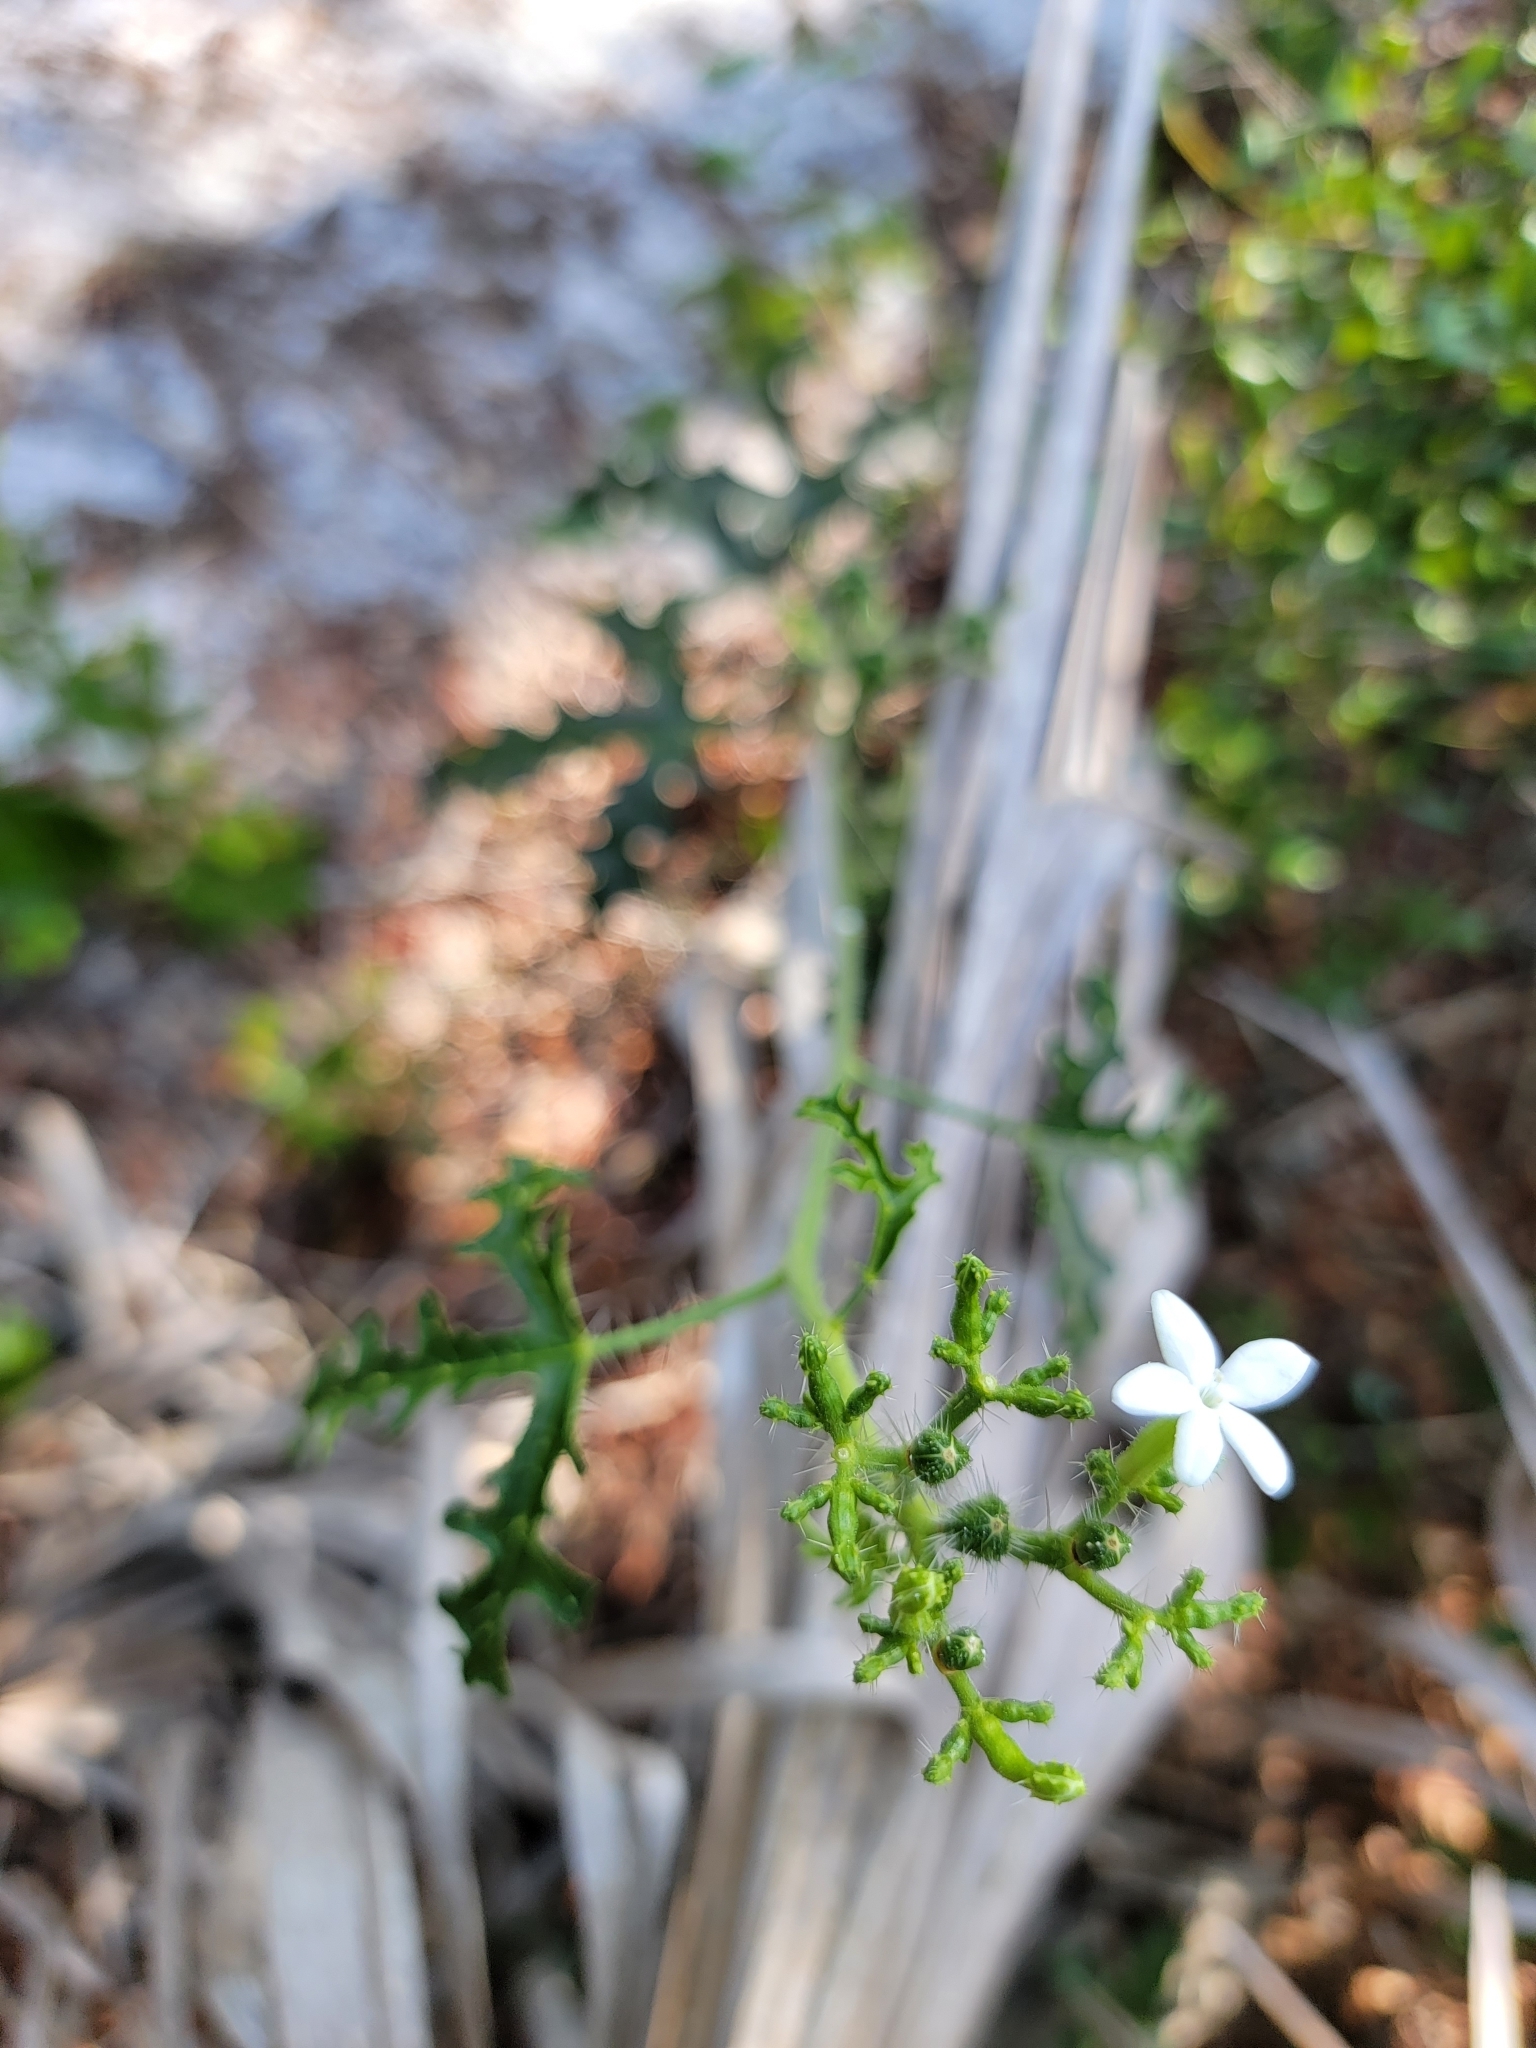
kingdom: Plantae
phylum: Tracheophyta
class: Magnoliopsida
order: Malpighiales
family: Euphorbiaceae
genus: Cnidoscolus
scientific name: Cnidoscolus stimulosus
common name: Bull-nettle
